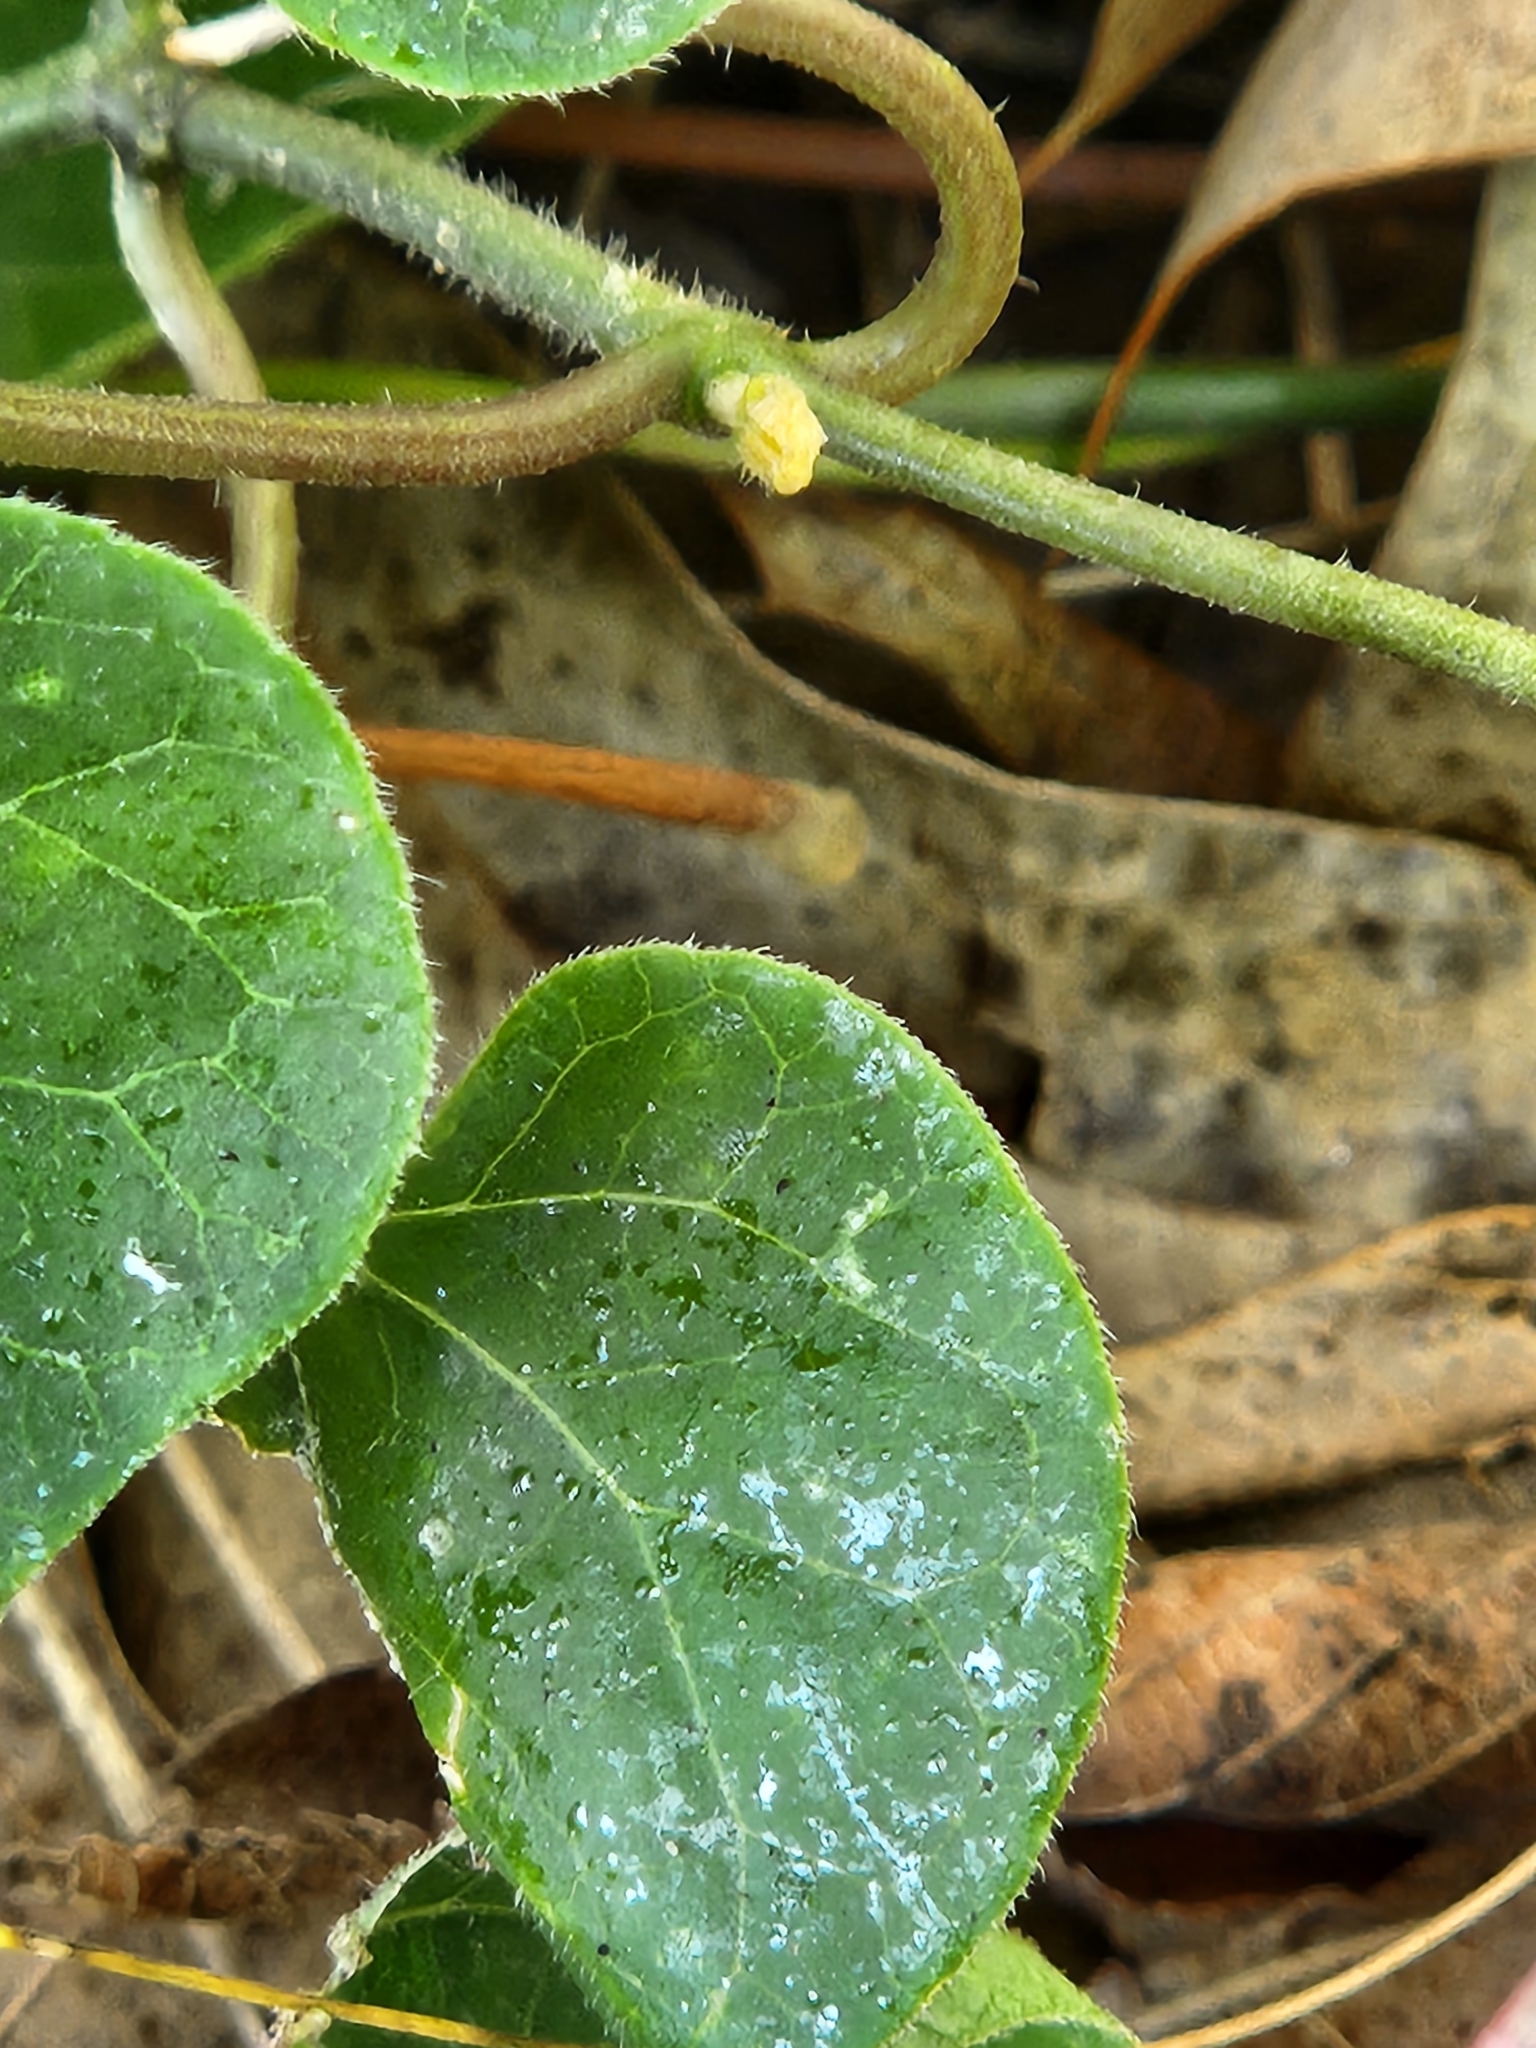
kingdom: Plantae
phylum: Tracheophyta
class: Magnoliopsida
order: Gentianales
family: Apocynaceae
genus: Gonolobus
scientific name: Gonolobus suberosus
